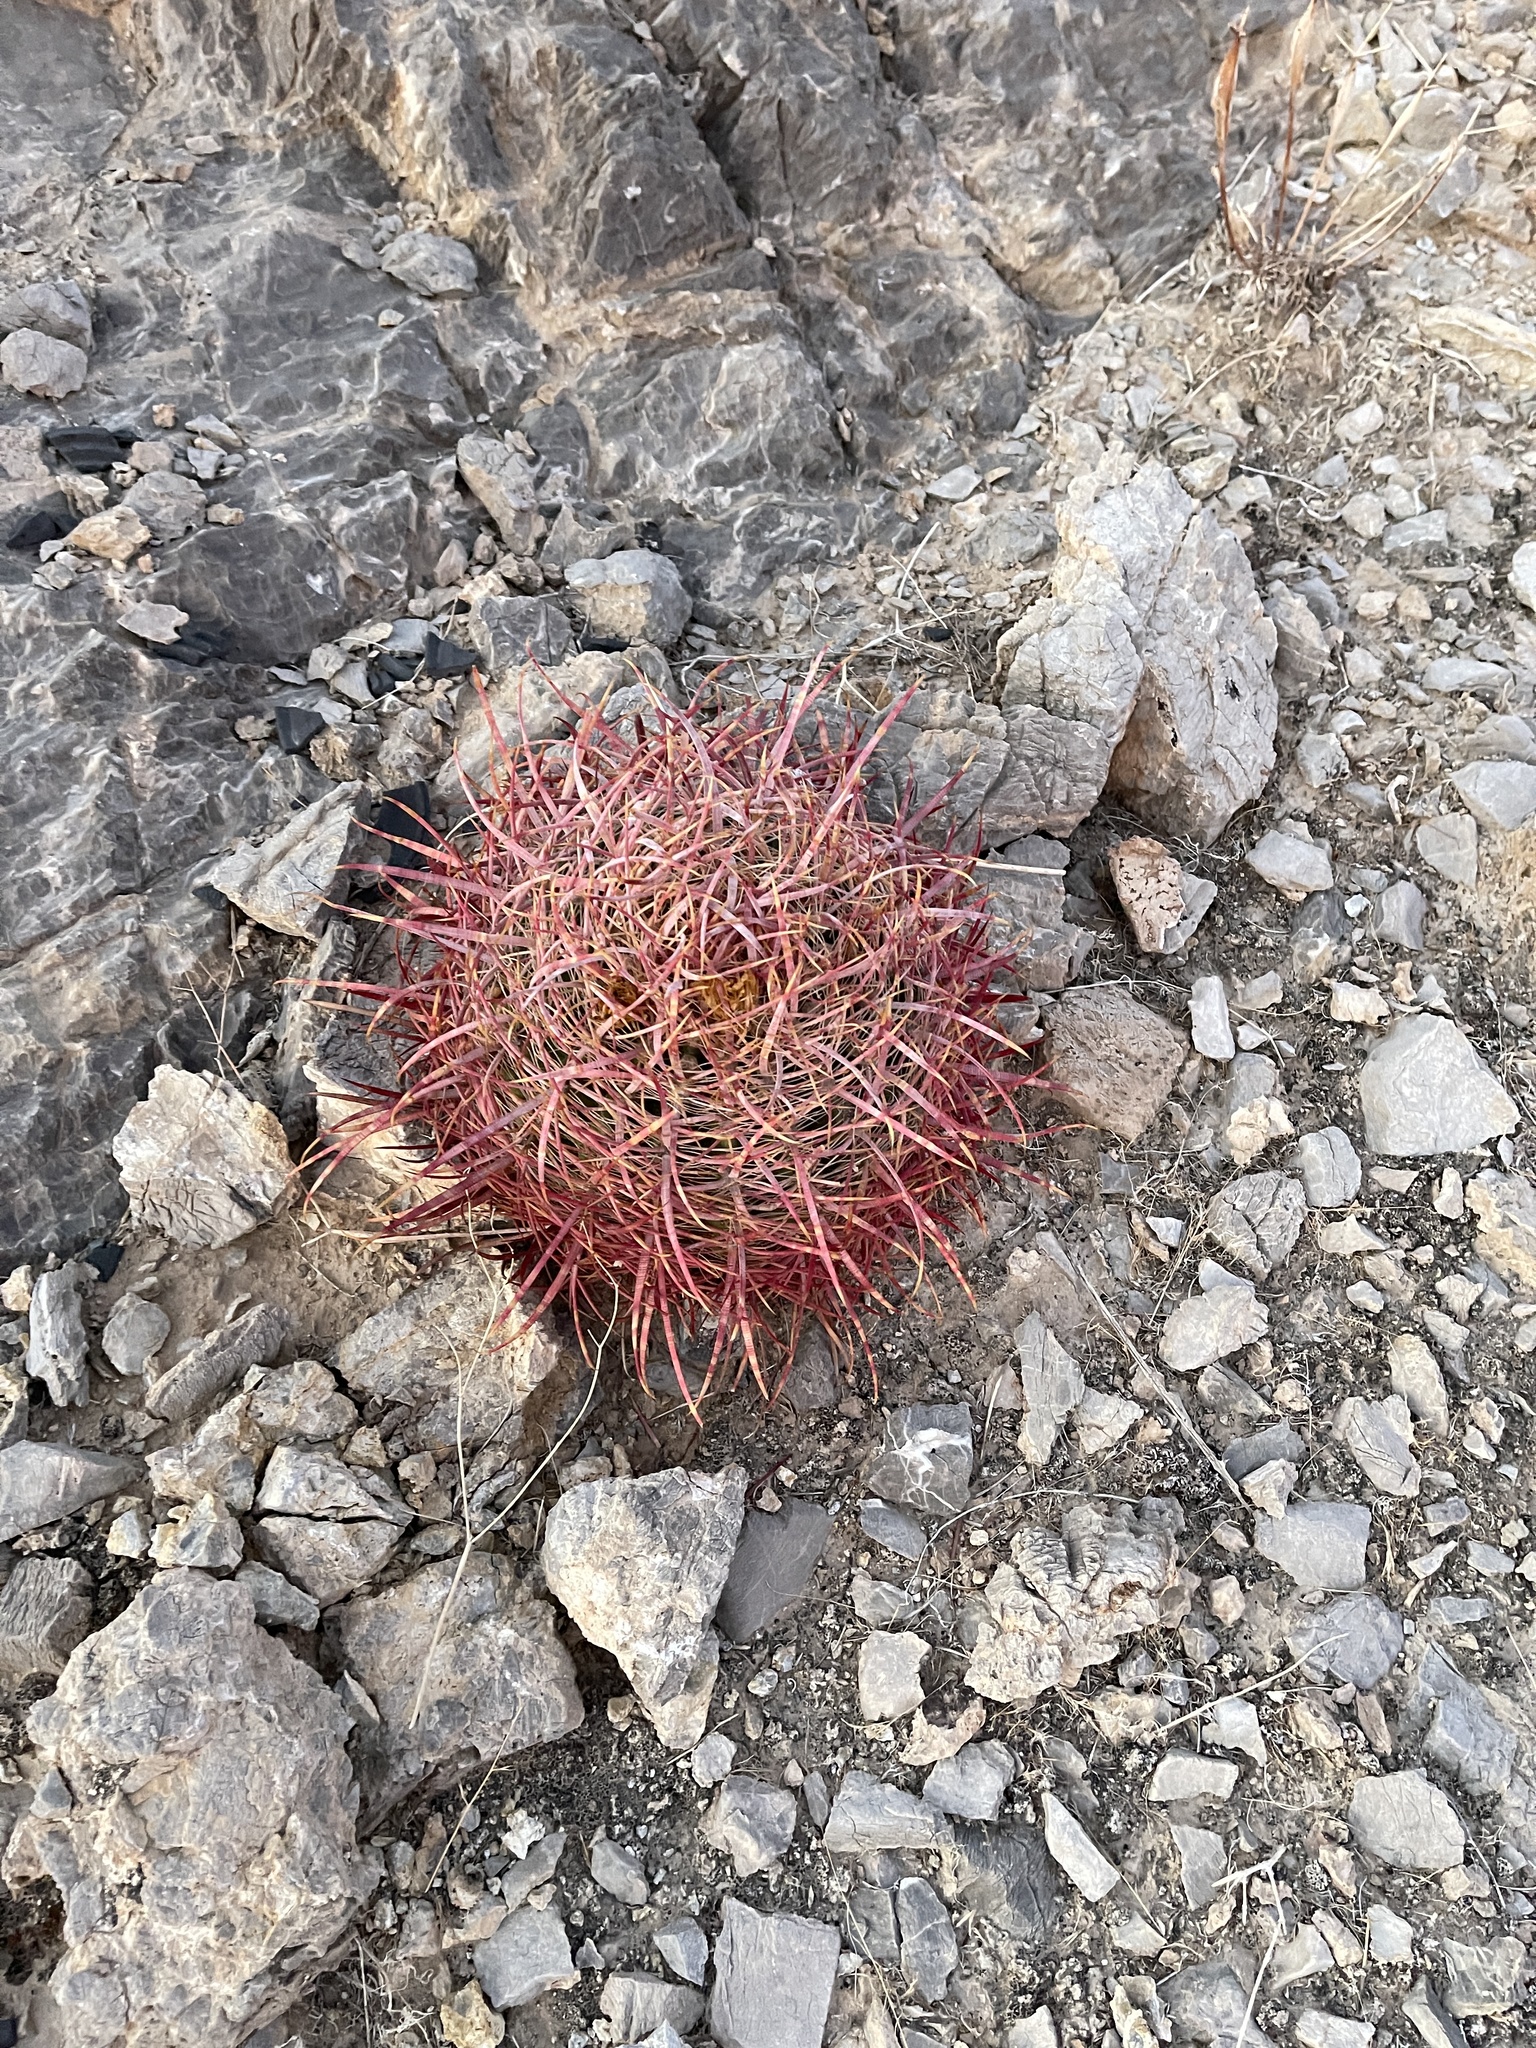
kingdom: Plantae
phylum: Tracheophyta
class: Magnoliopsida
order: Caryophyllales
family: Cactaceae
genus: Ferocactus
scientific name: Ferocactus cylindraceus
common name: California barrel cactus
